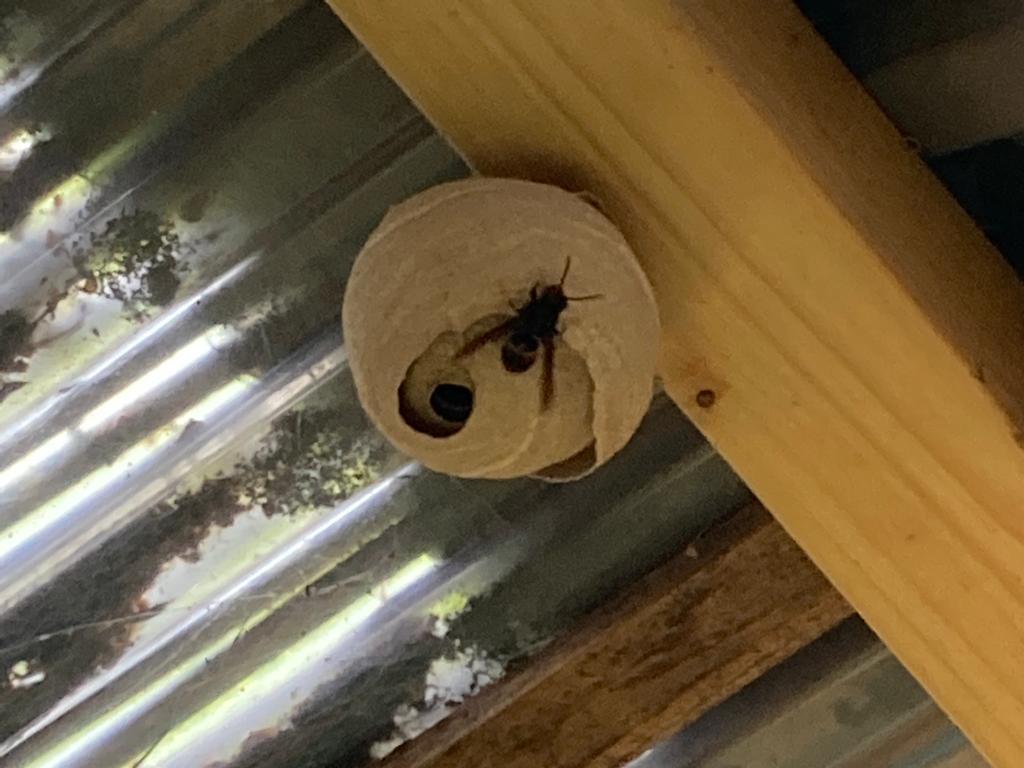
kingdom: Animalia
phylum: Arthropoda
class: Insecta
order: Hymenoptera
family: Vespidae
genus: Vespa
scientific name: Vespa velutina
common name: Asian hornet
